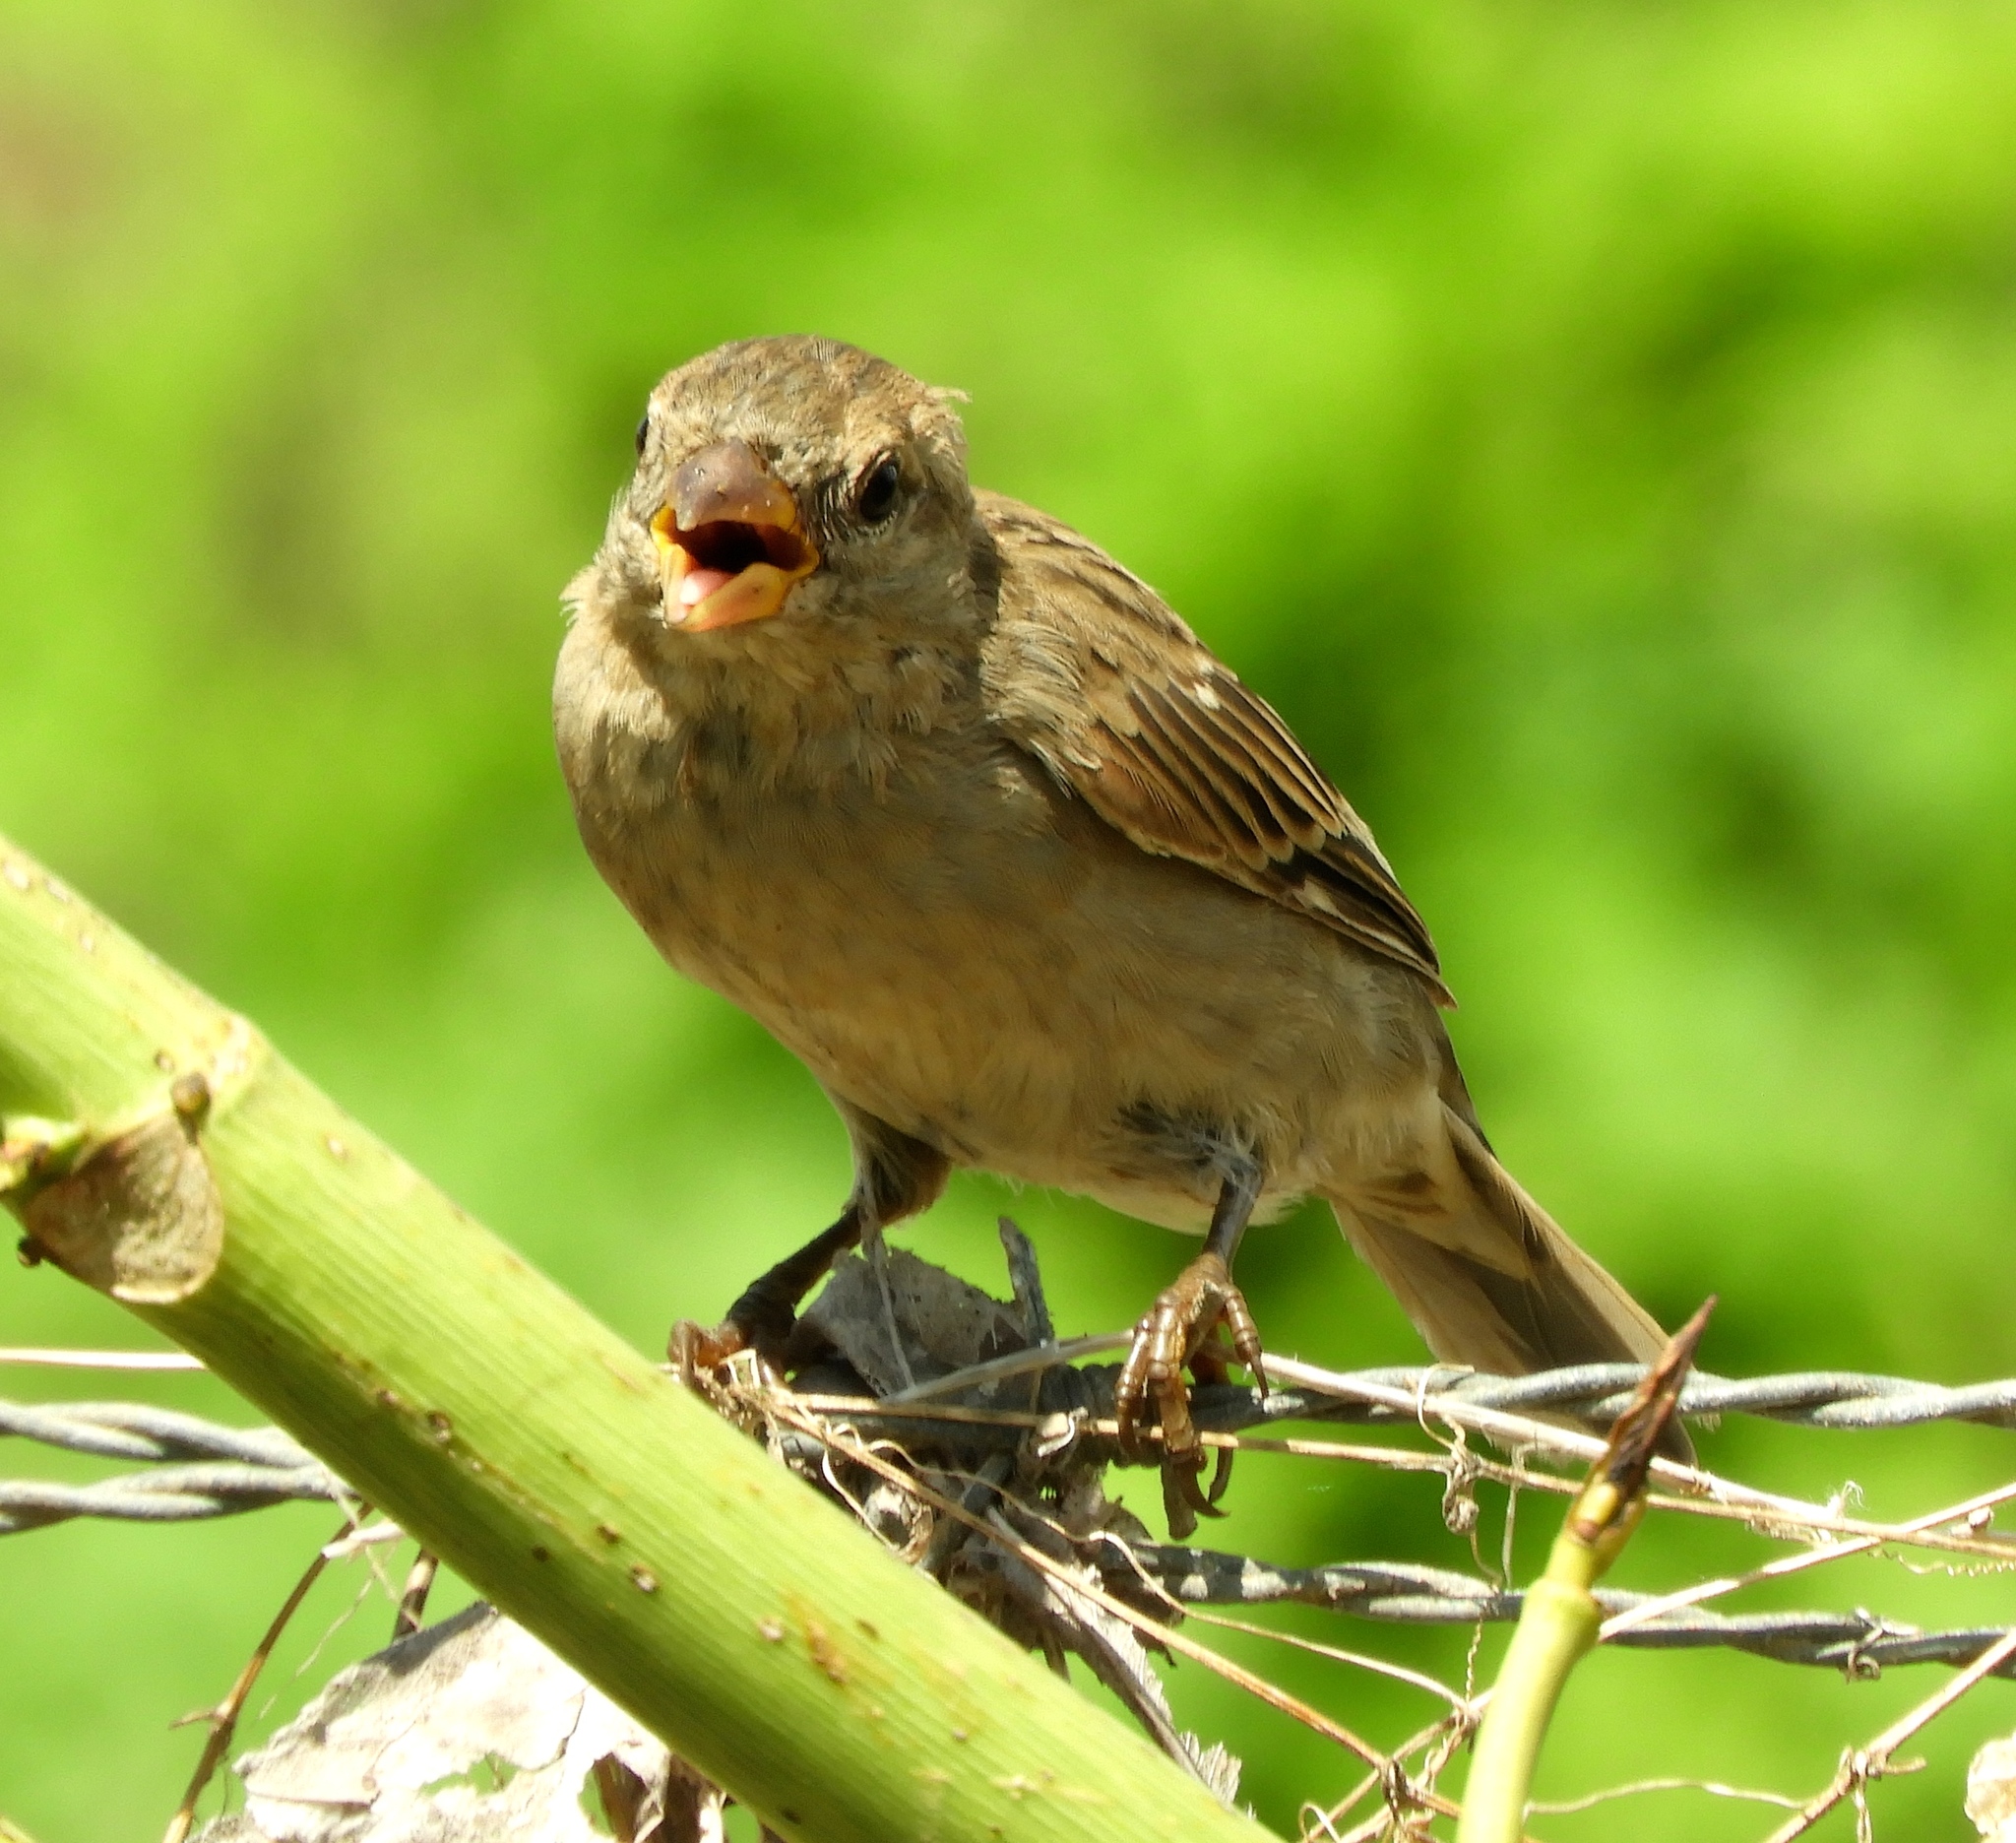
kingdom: Animalia
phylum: Chordata
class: Aves
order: Passeriformes
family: Passeridae
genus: Passer
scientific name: Passer domesticus
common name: House sparrow
